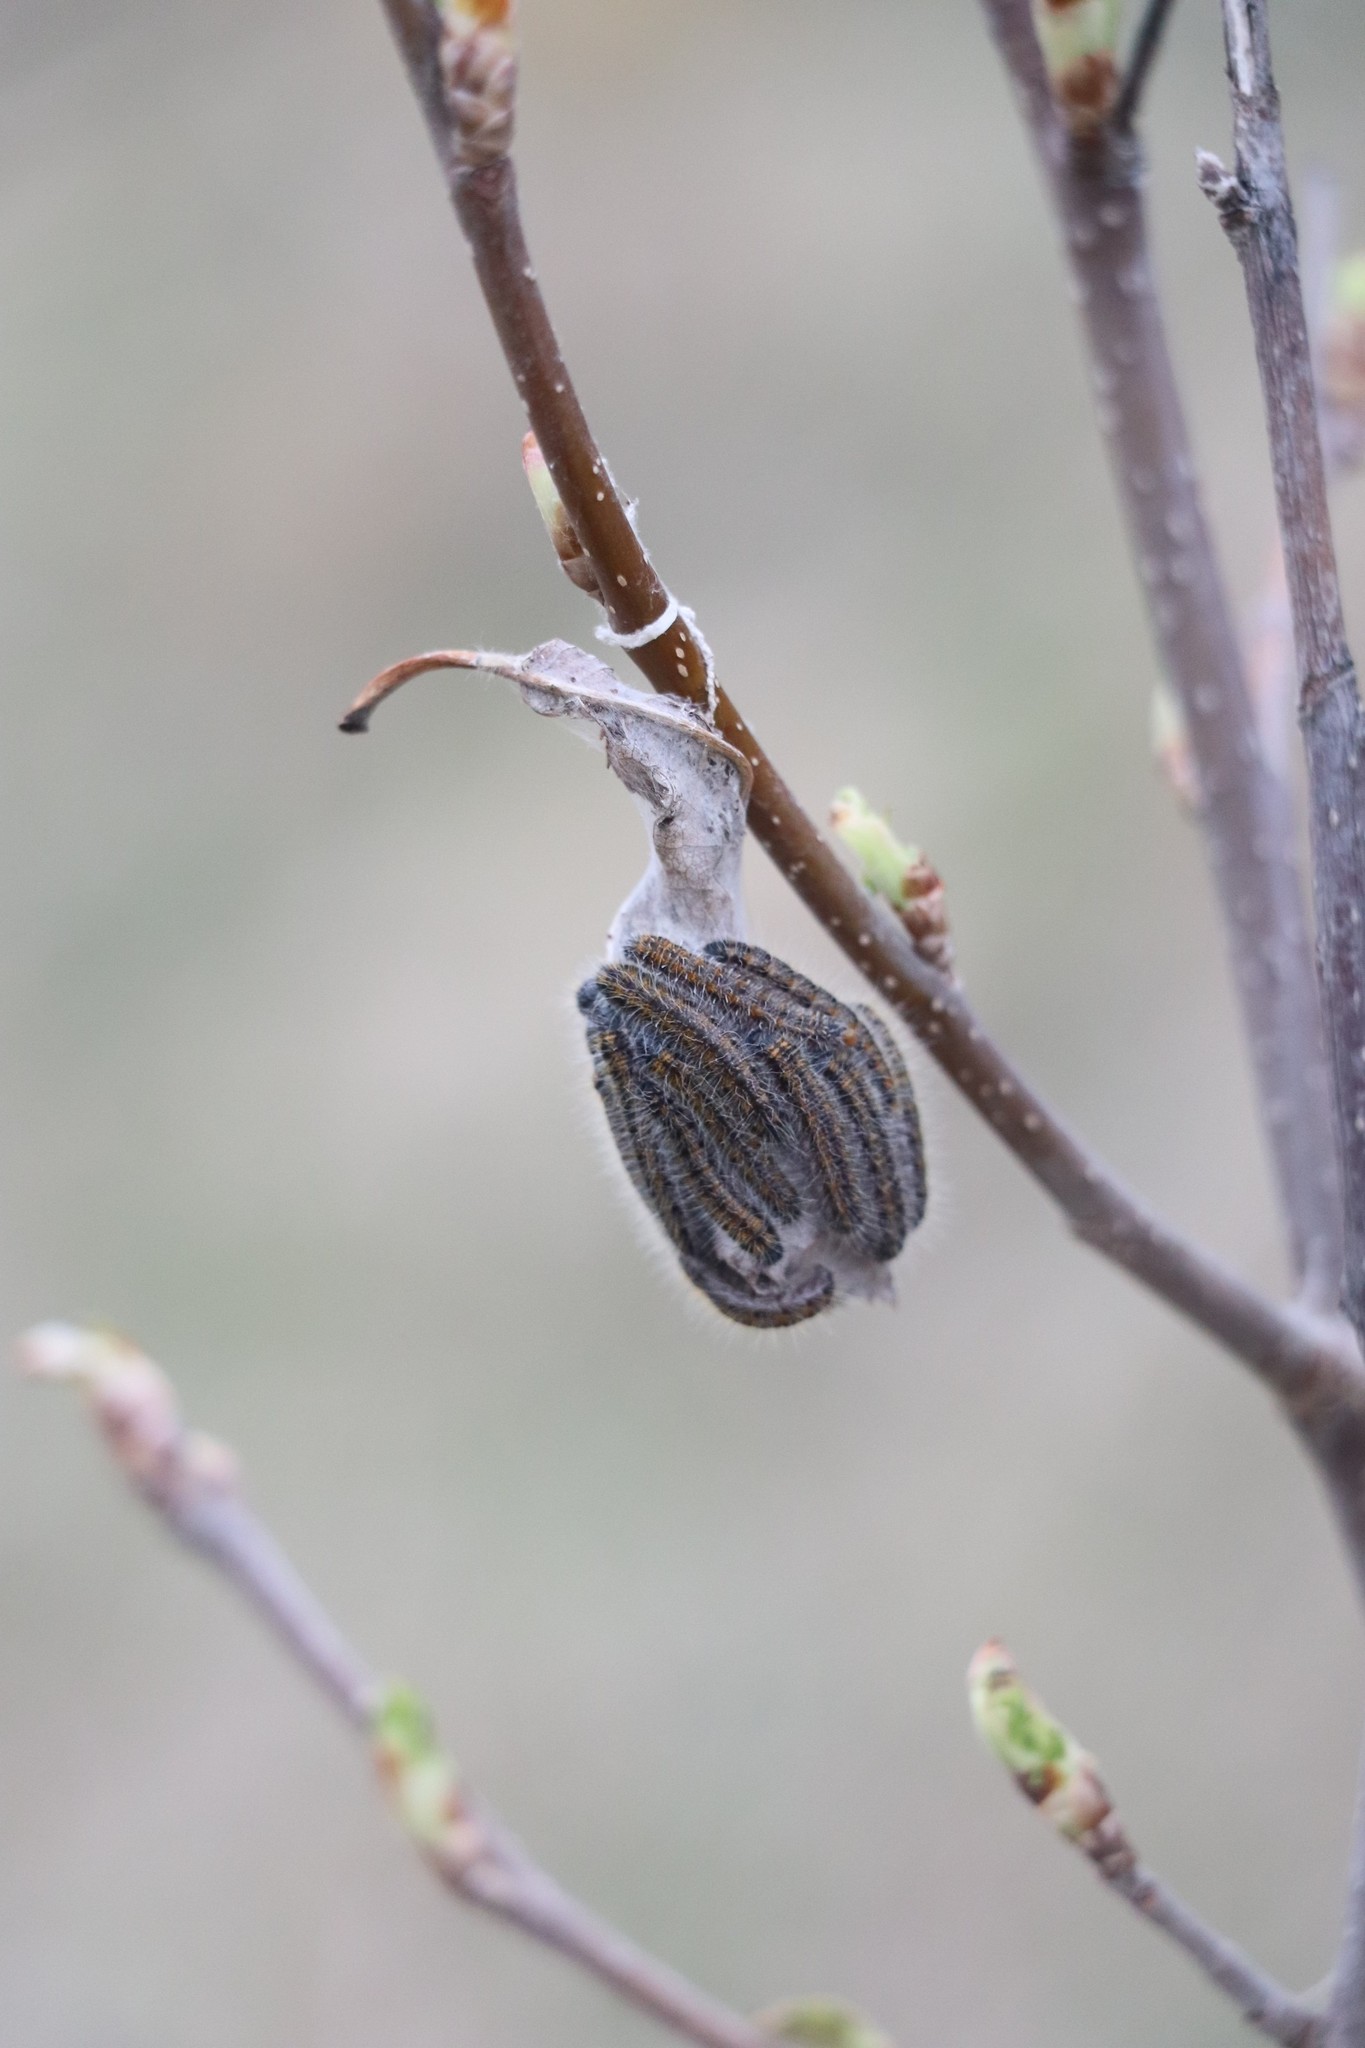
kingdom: Animalia
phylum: Arthropoda
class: Insecta
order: Lepidoptera
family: Pieridae
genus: Aporia
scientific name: Aporia crataegi
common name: Black-veined white
